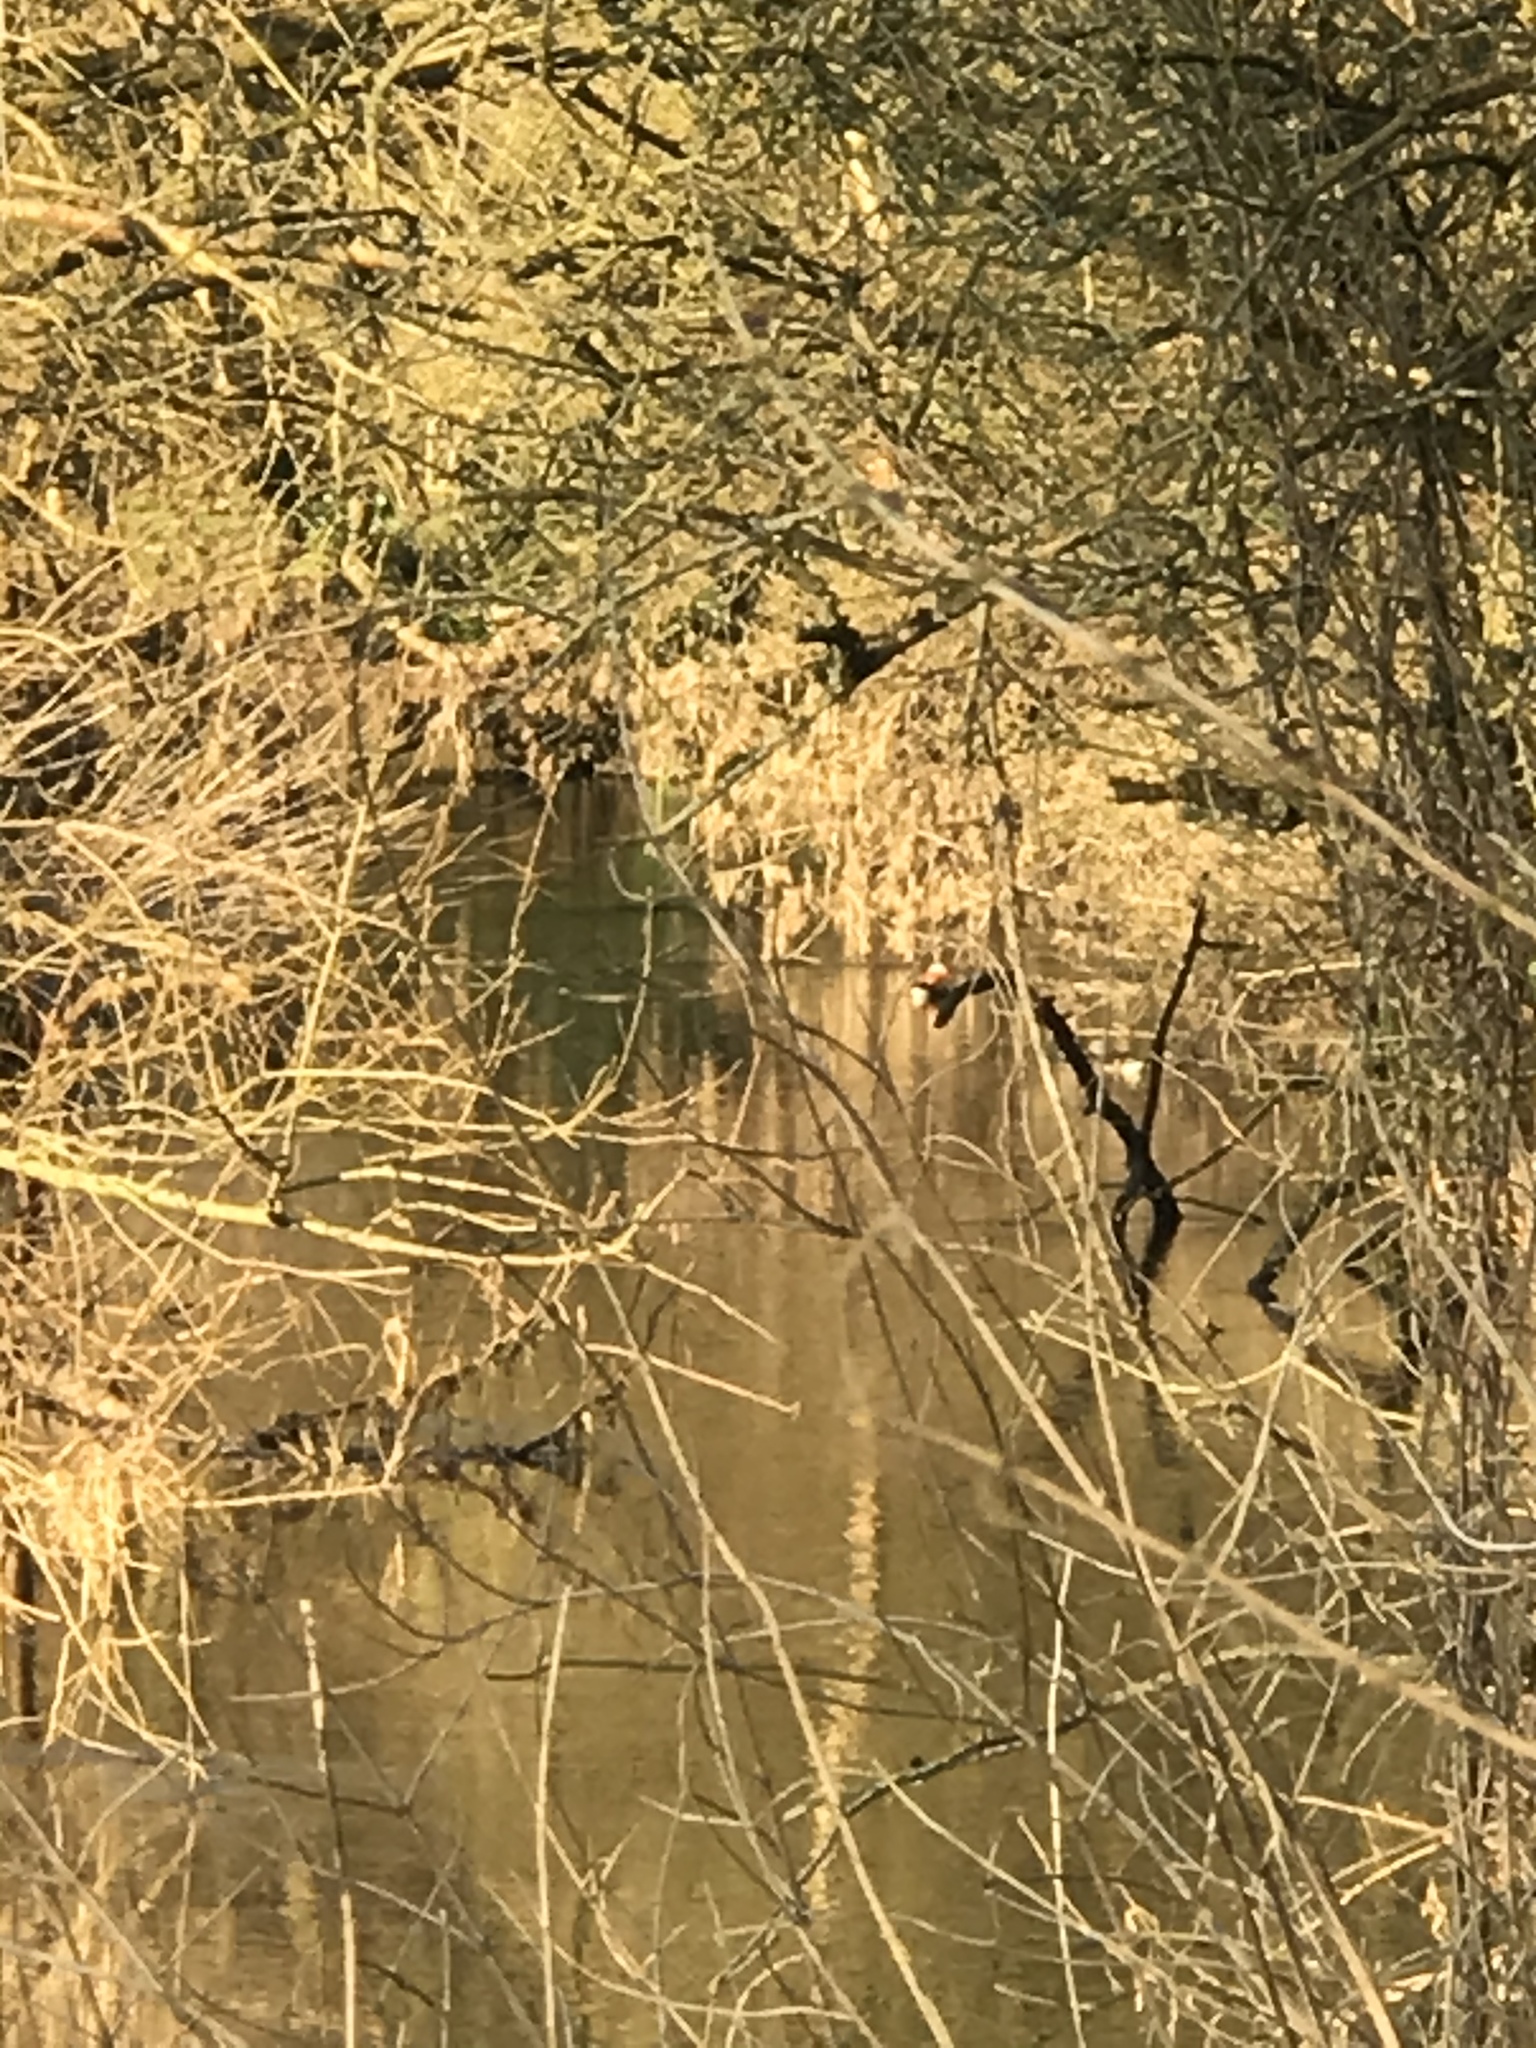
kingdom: Animalia
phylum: Chordata
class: Aves
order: Anseriformes
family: Anatidae
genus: Aix
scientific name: Aix galericulata
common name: Mandarin duck
